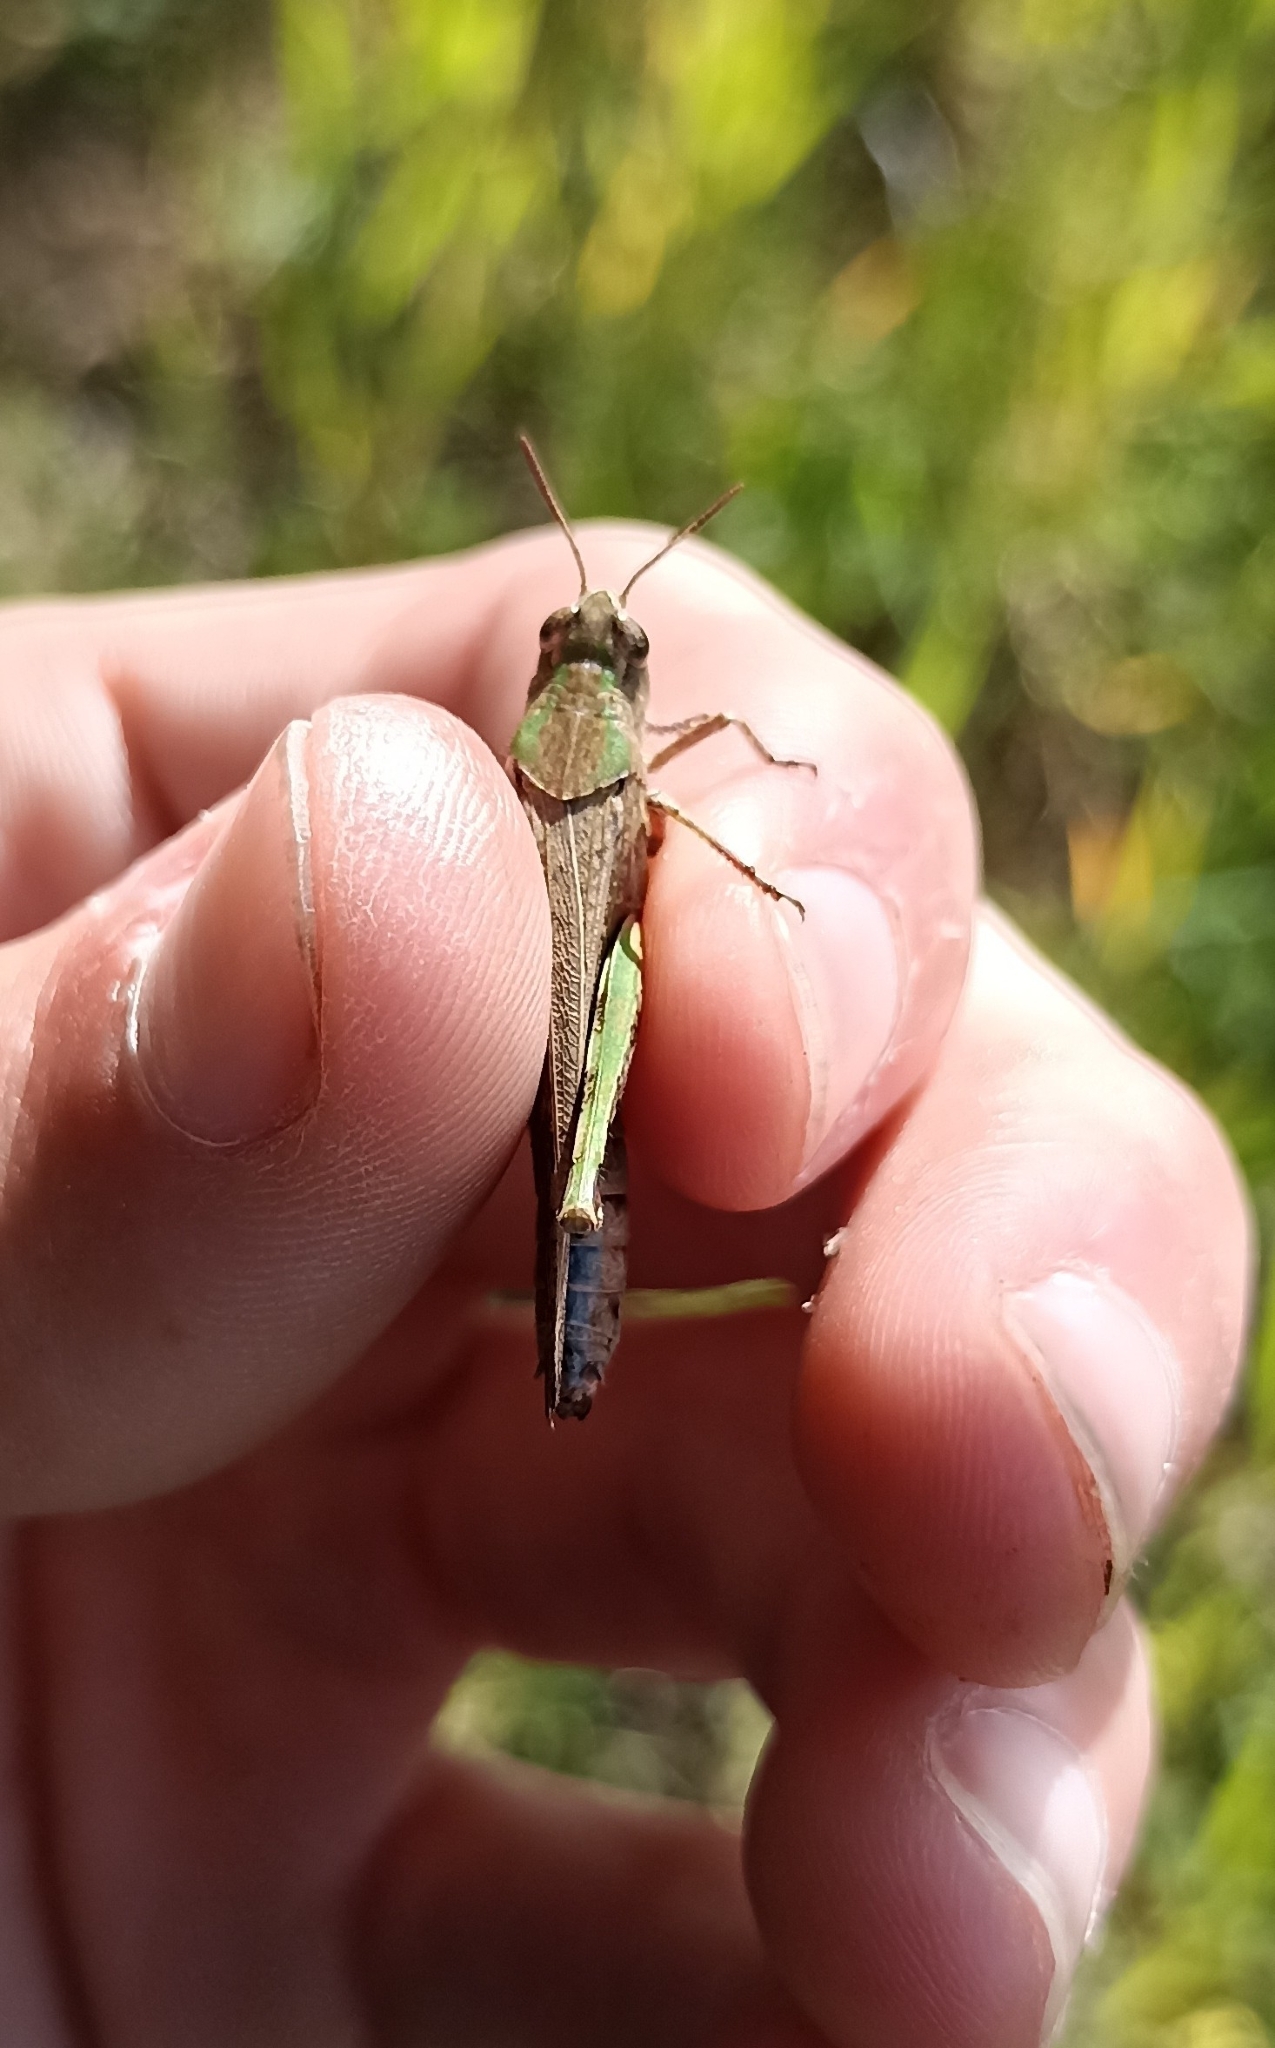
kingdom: Animalia
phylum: Arthropoda
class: Insecta
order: Orthoptera
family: Acrididae
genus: Aiolopus
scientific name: Aiolopus strepens
